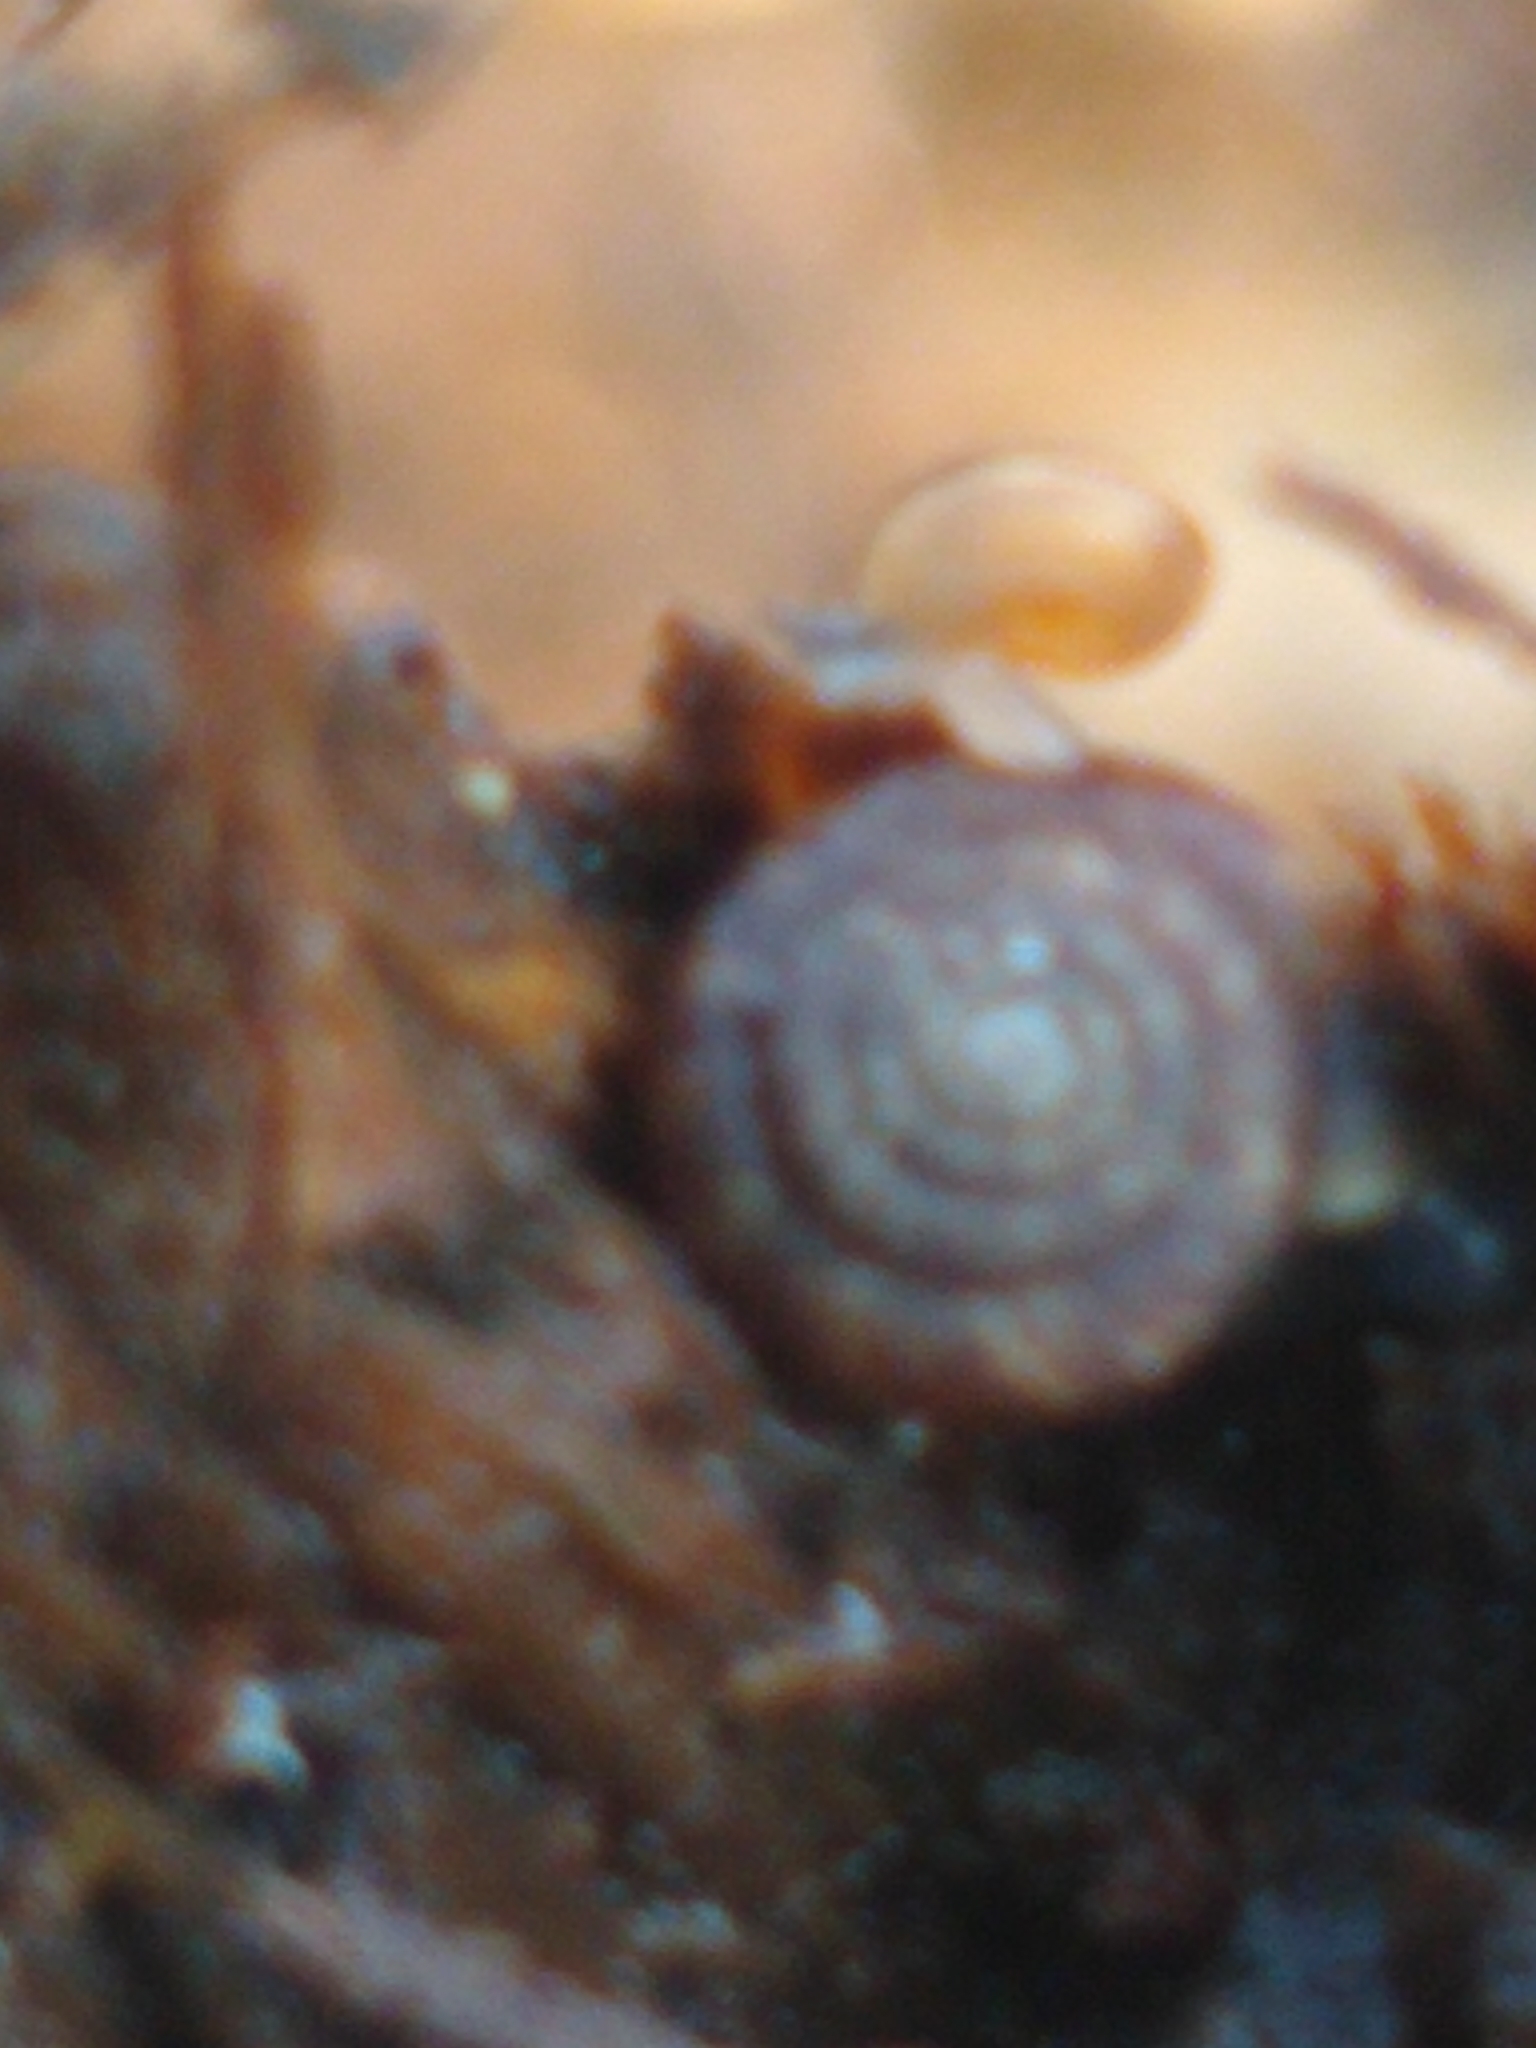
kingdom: Animalia
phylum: Mollusca
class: Gastropoda
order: Stylommatophora
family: Discidae
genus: Discus
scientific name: Discus rotundatus
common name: Rounded snail
